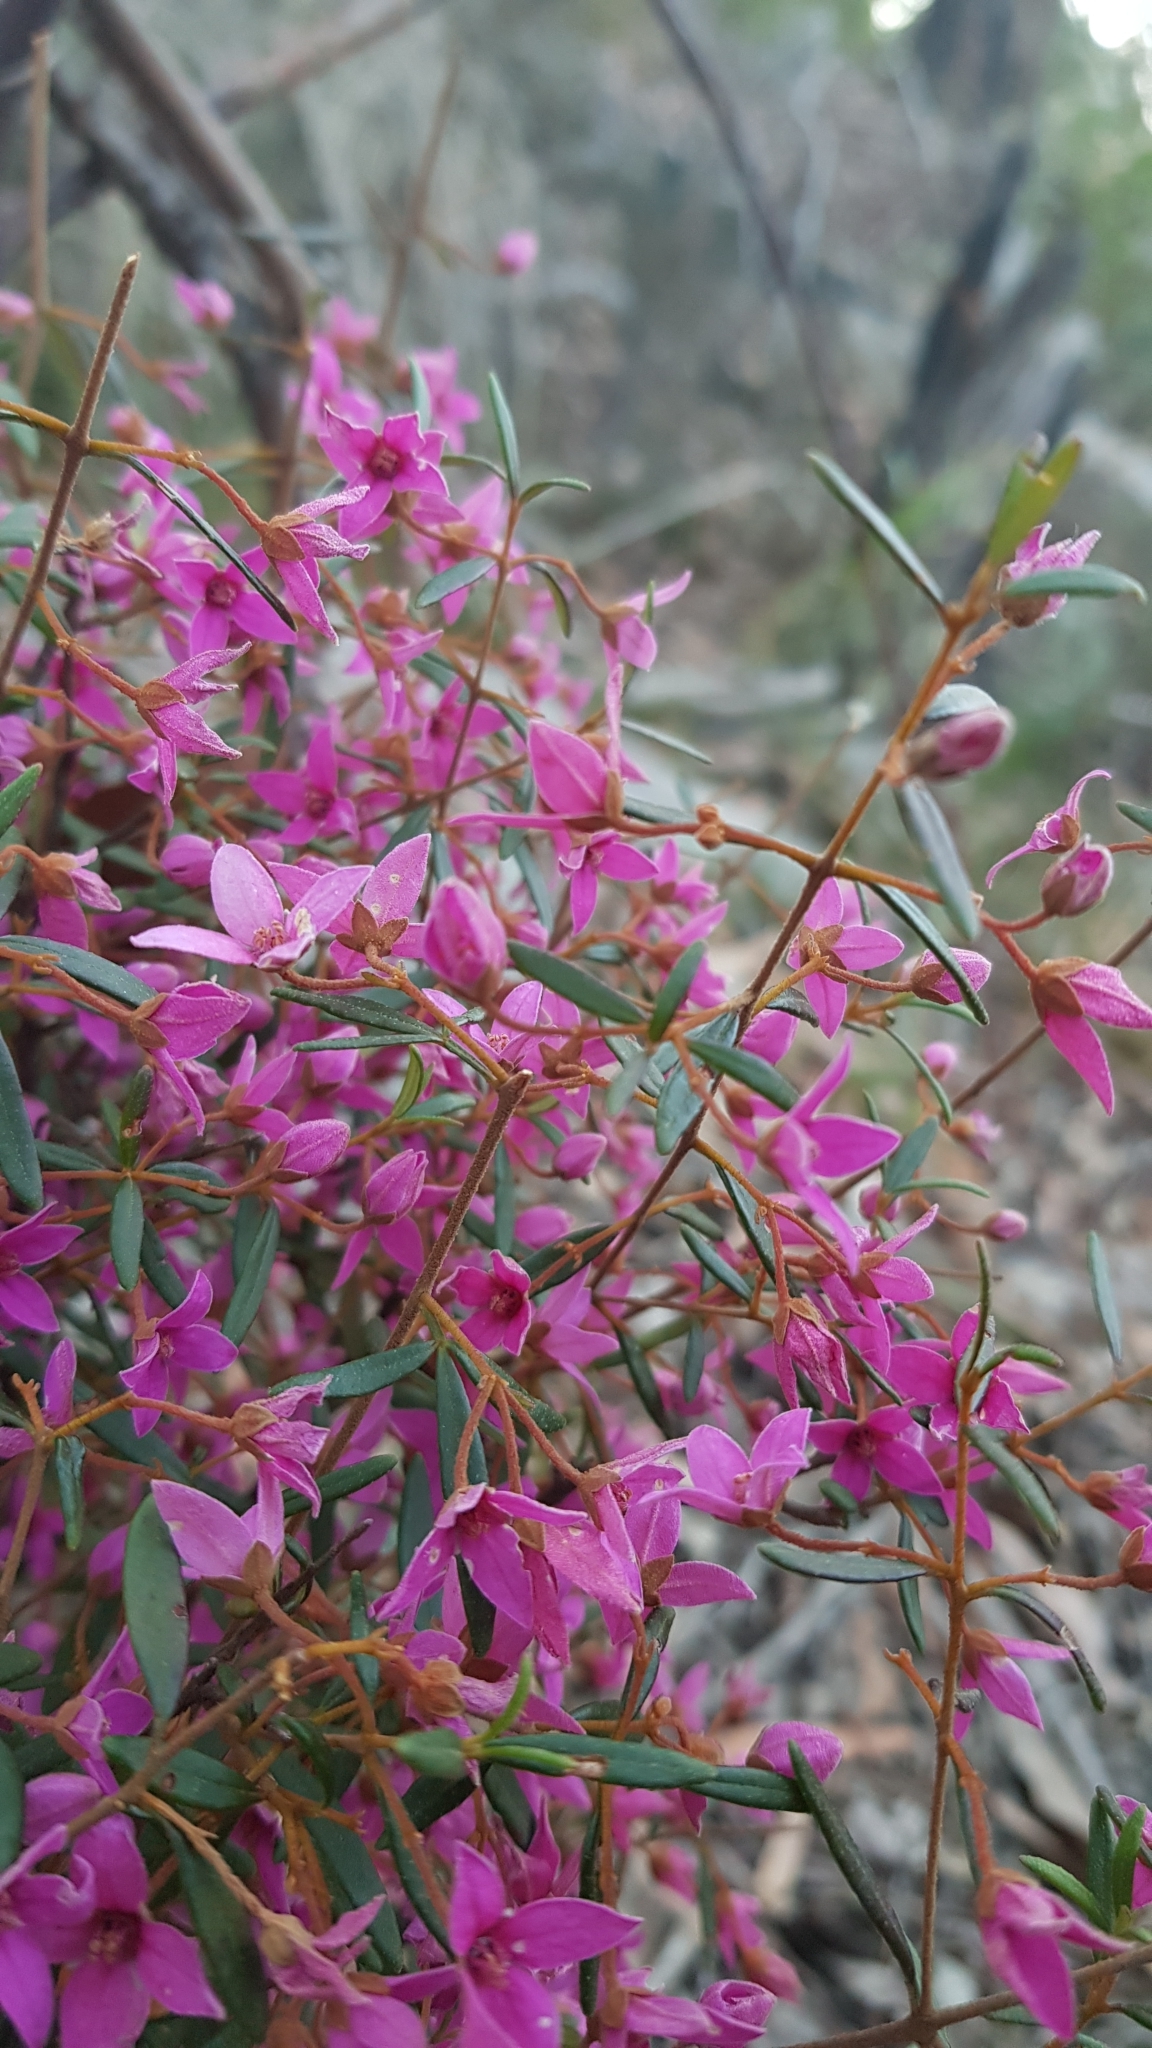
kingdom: Plantae
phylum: Tracheophyta
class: Magnoliopsida
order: Sapindales
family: Rutaceae
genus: Boronia
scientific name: Boronia ledifolia
